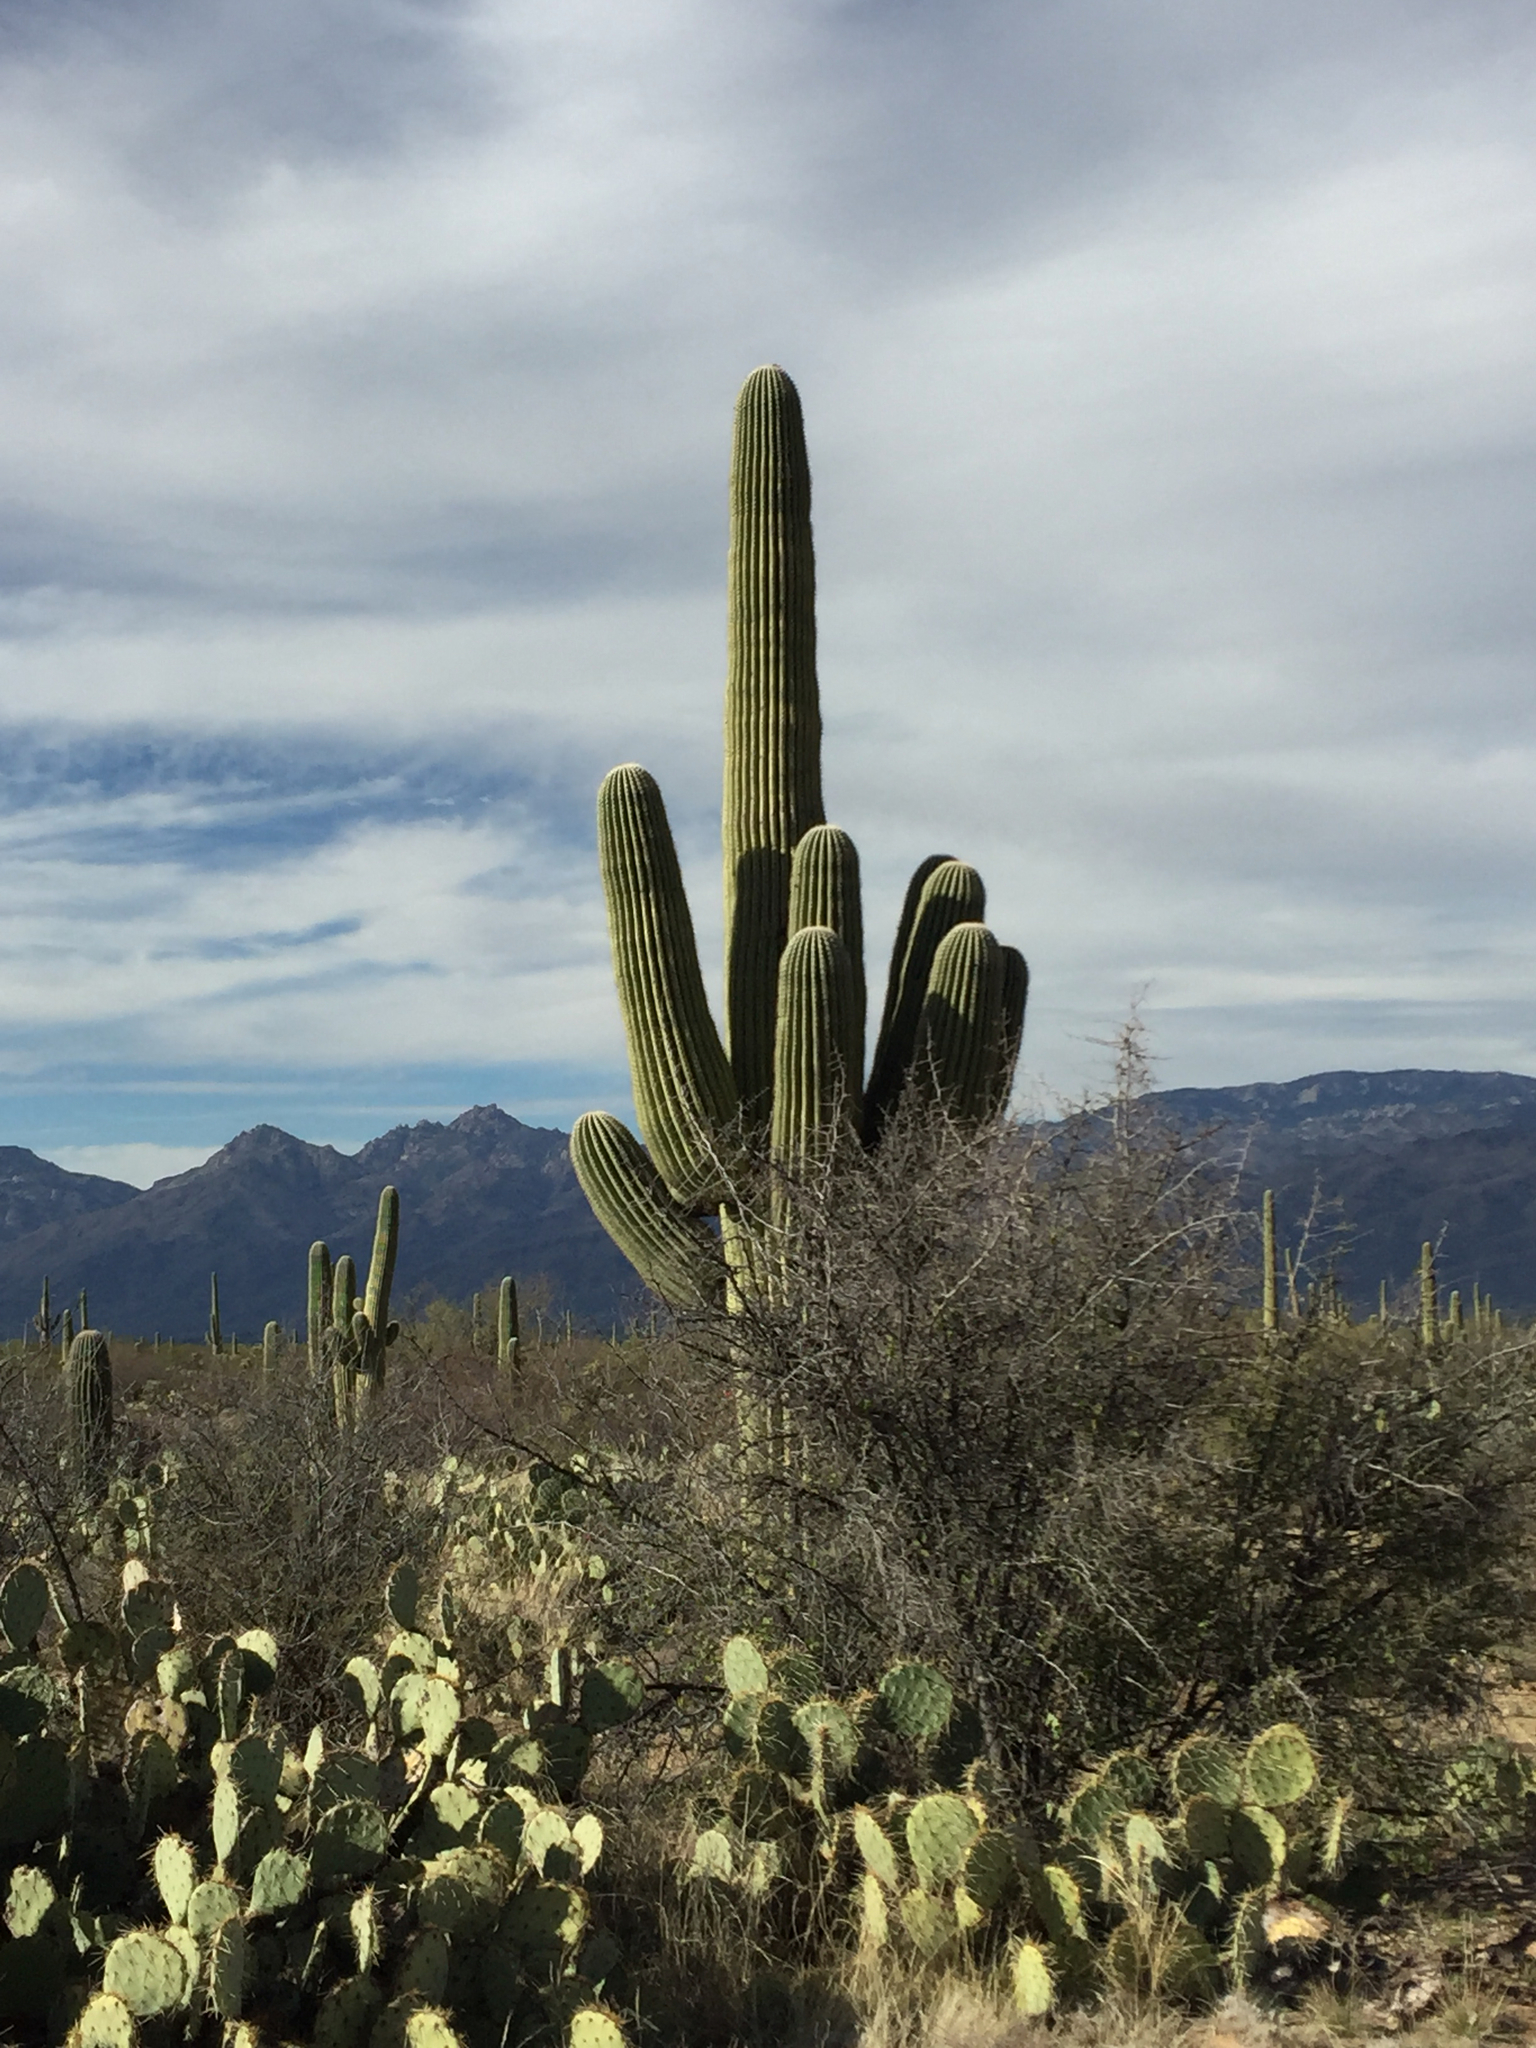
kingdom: Plantae
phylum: Tracheophyta
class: Magnoliopsida
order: Caryophyllales
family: Cactaceae
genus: Carnegiea
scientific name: Carnegiea gigantea
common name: Saguaro
